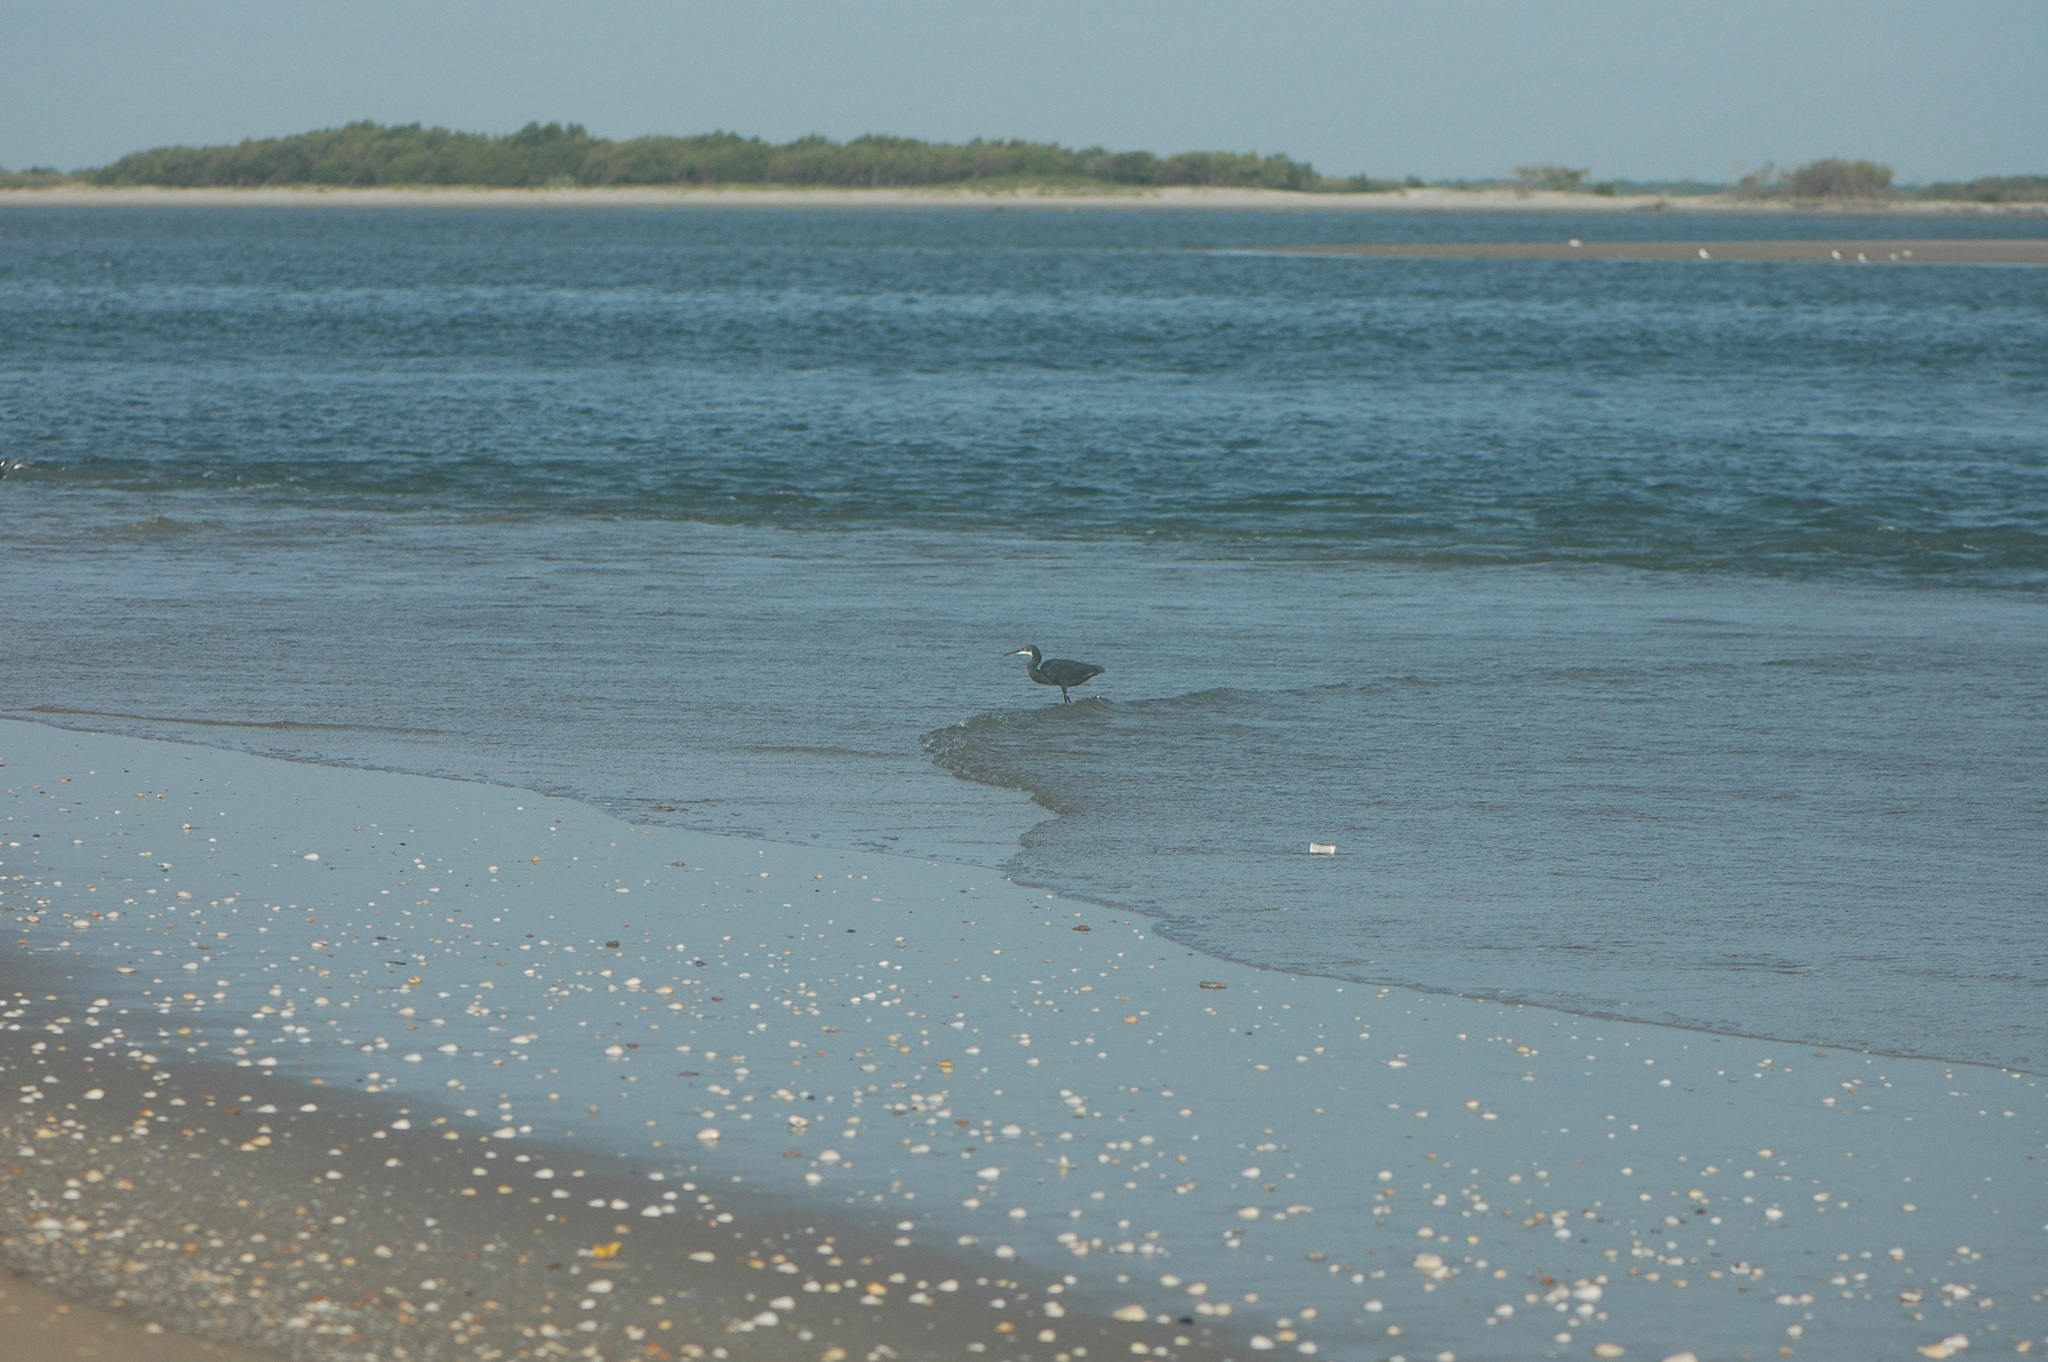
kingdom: Animalia
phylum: Chordata
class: Aves
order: Pelecaniformes
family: Ardeidae
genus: Egretta
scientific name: Egretta gularis
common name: Western reef-heron
